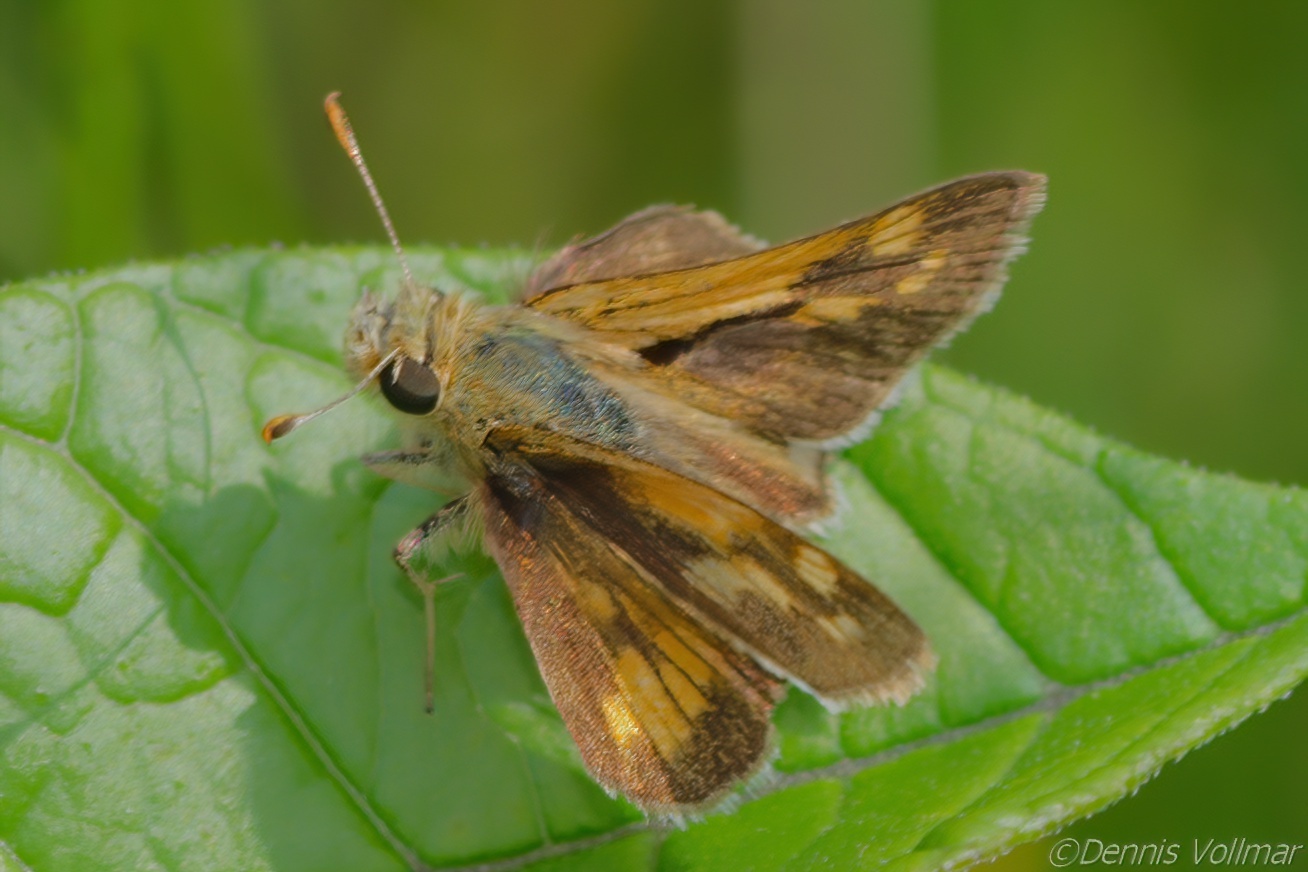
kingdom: Animalia
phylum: Arthropoda
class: Insecta
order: Lepidoptera
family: Hesperiidae
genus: Polites
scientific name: Polites coras
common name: Peck's skipper
